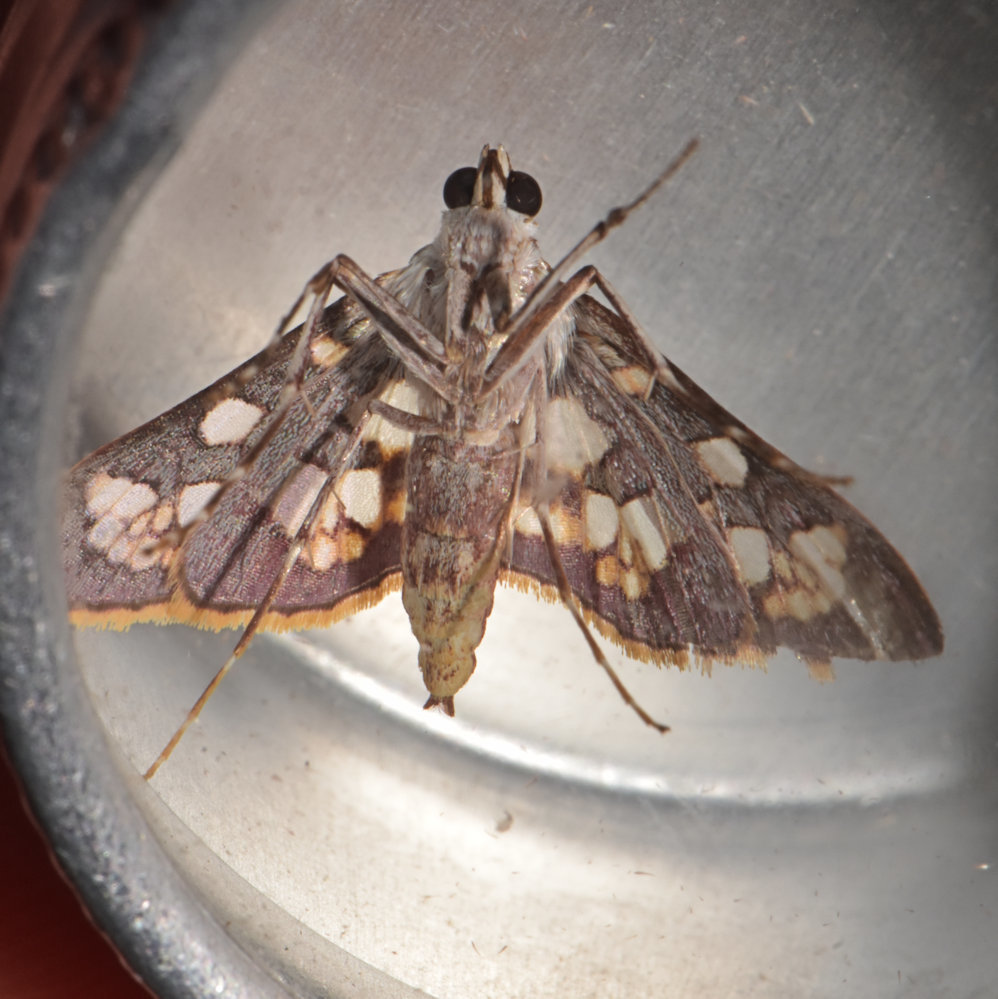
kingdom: Animalia
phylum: Arthropoda
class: Insecta
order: Lepidoptera
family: Crambidae
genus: Trithyris
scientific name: Trithyris
